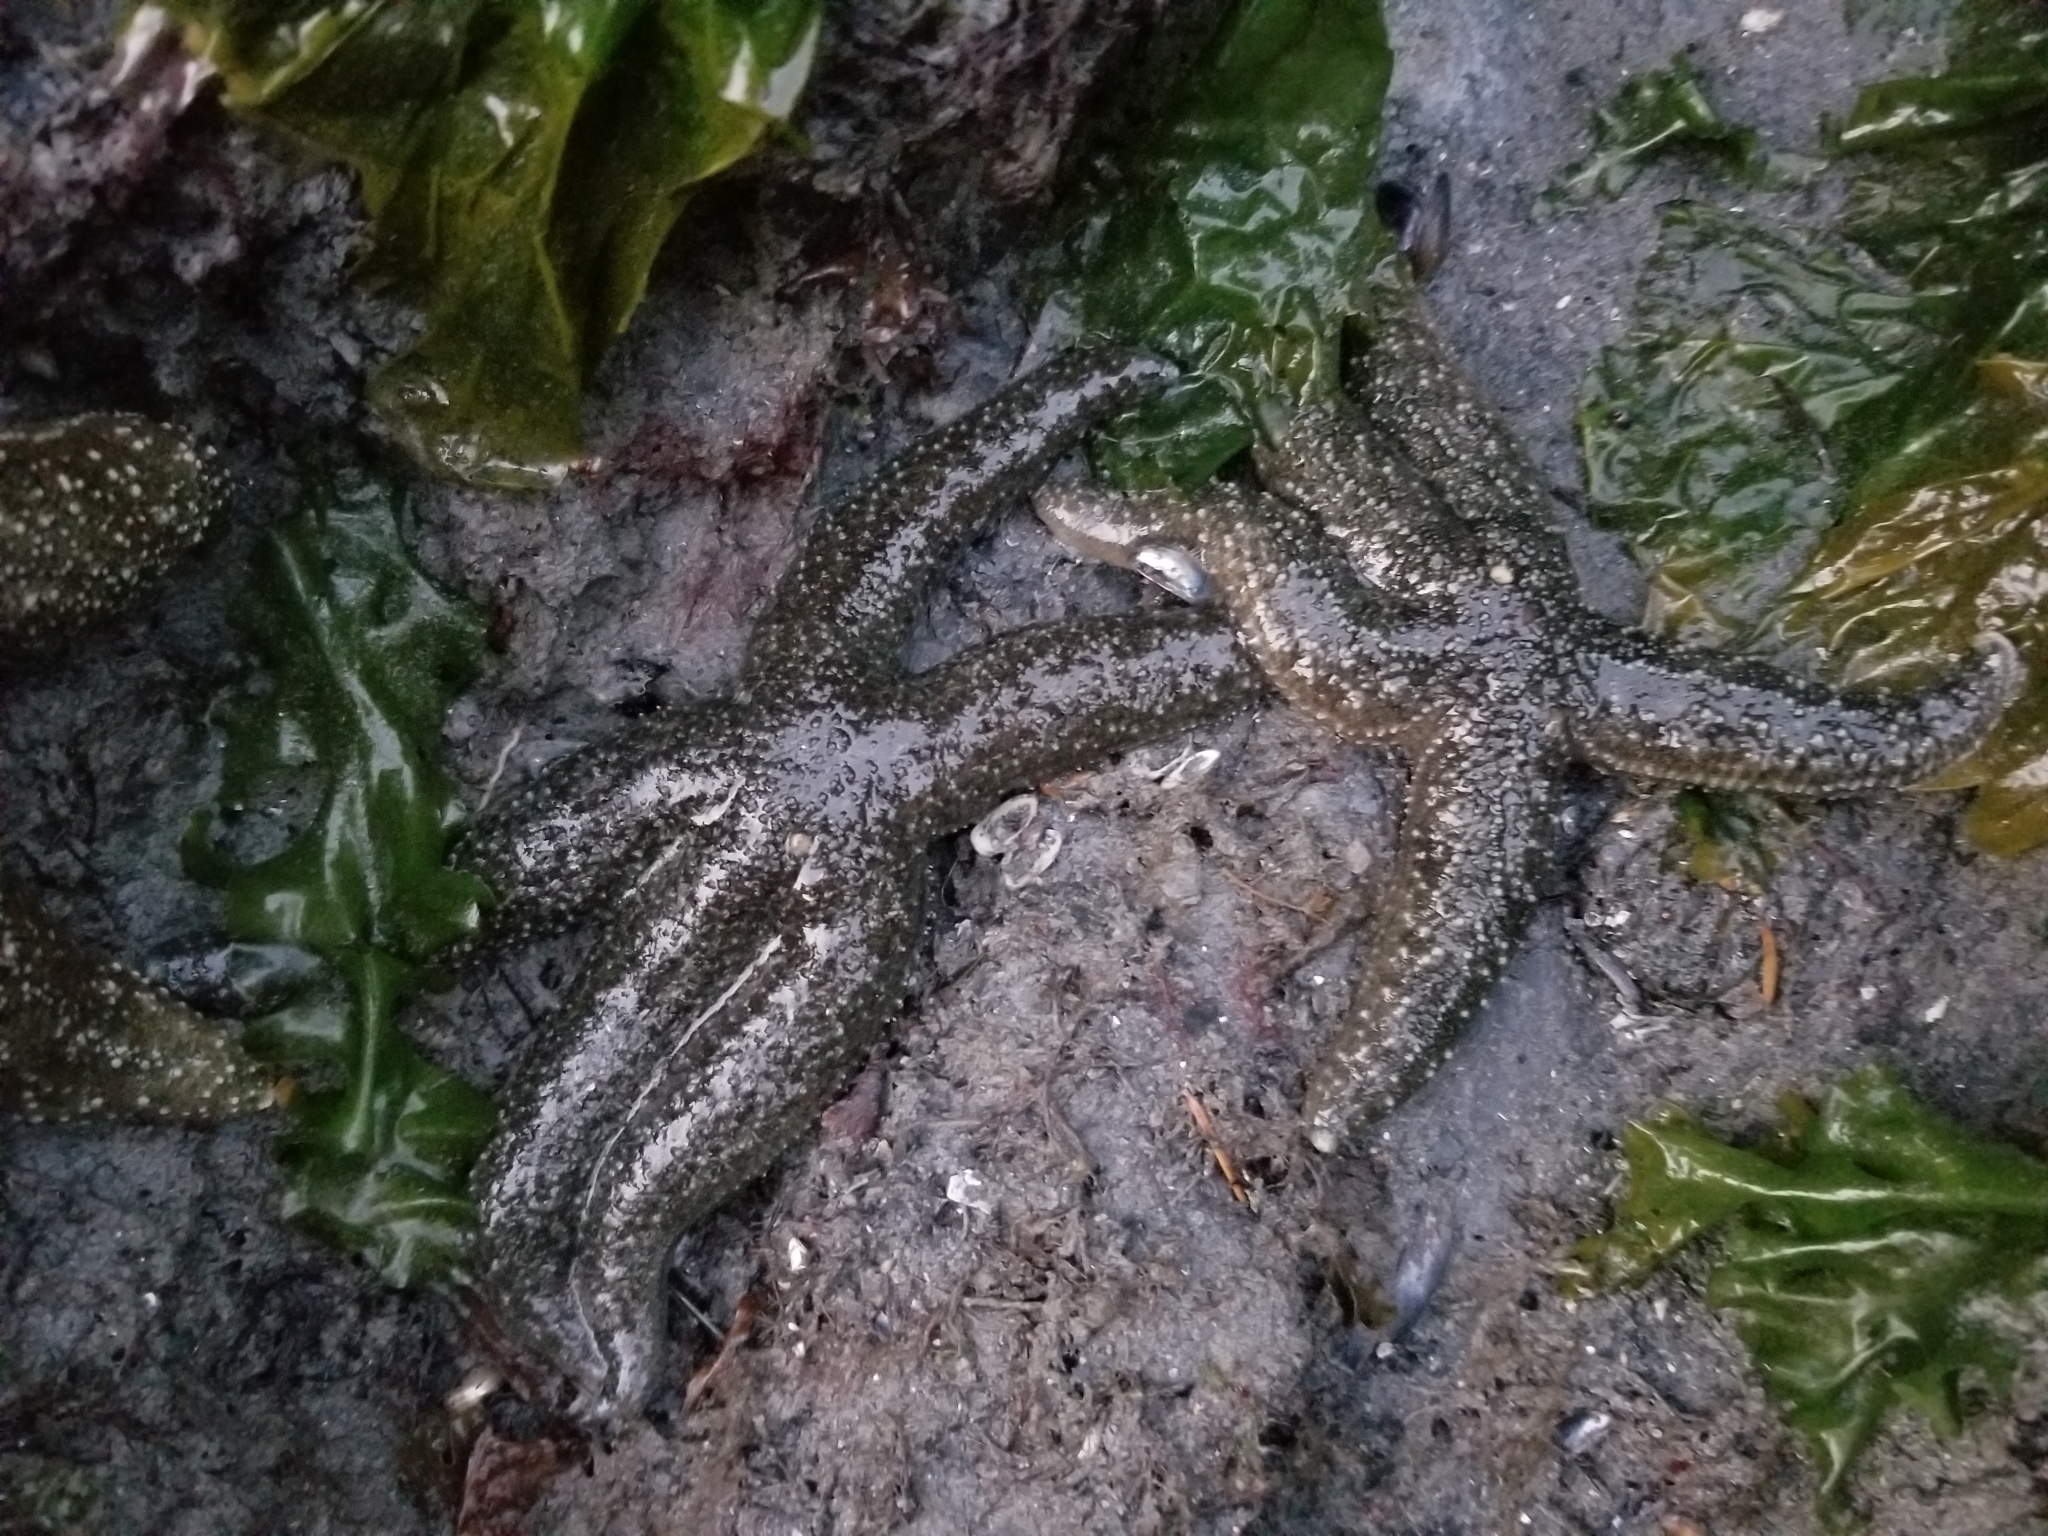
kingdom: Animalia
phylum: Echinodermata
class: Asteroidea
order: Forcipulatida
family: Asteriidae
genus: Evasterias
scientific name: Evasterias troschelii
